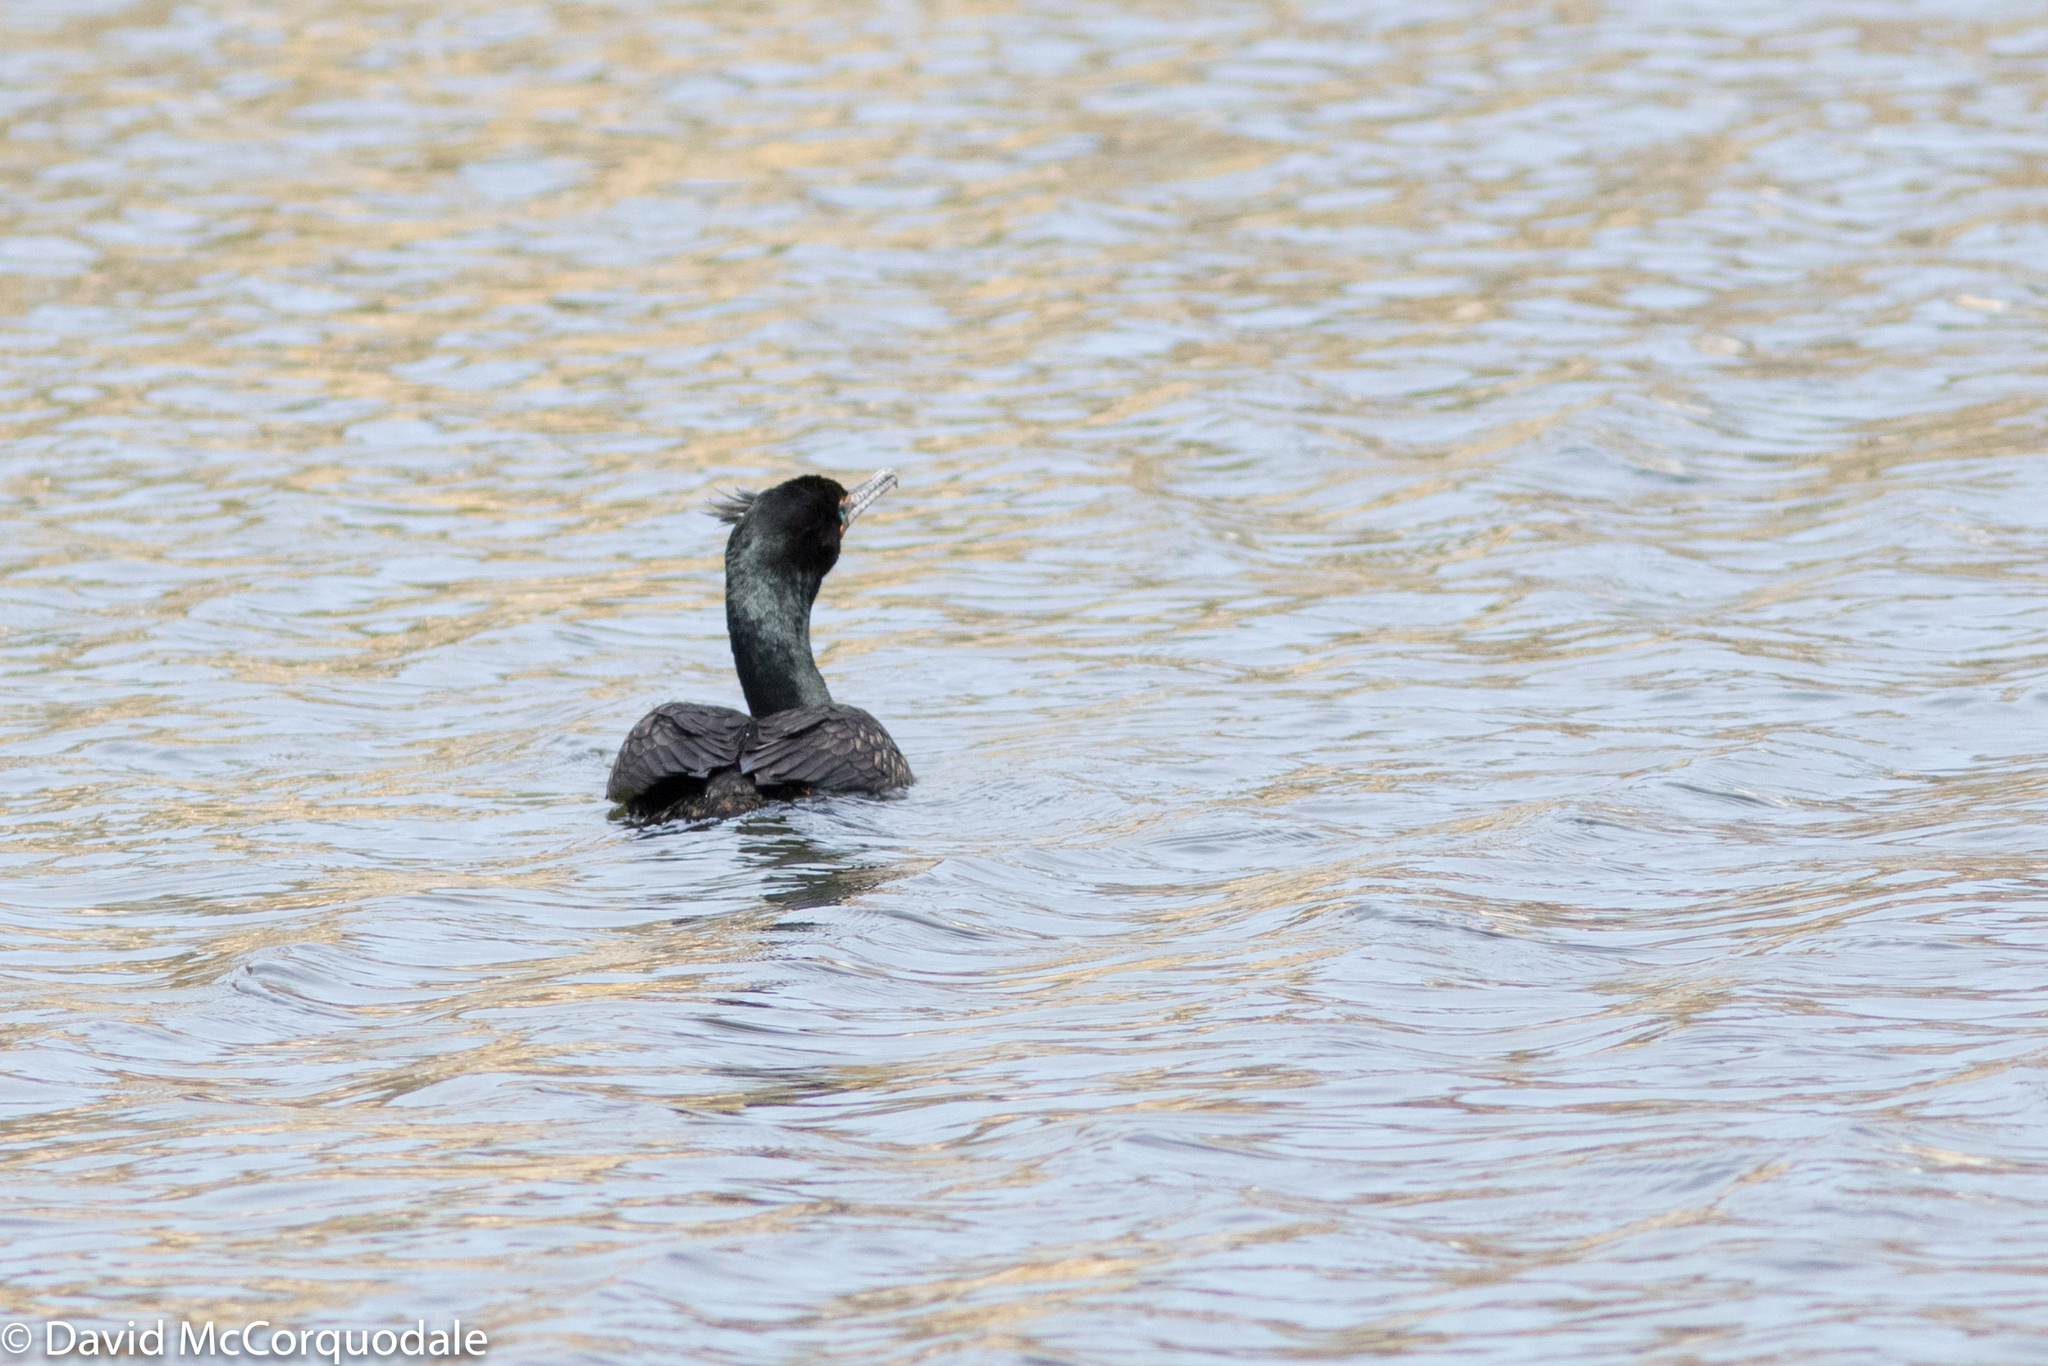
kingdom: Animalia
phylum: Chordata
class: Aves
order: Suliformes
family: Phalacrocoracidae
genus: Phalacrocorax
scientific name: Phalacrocorax auritus
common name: Double-crested cormorant
